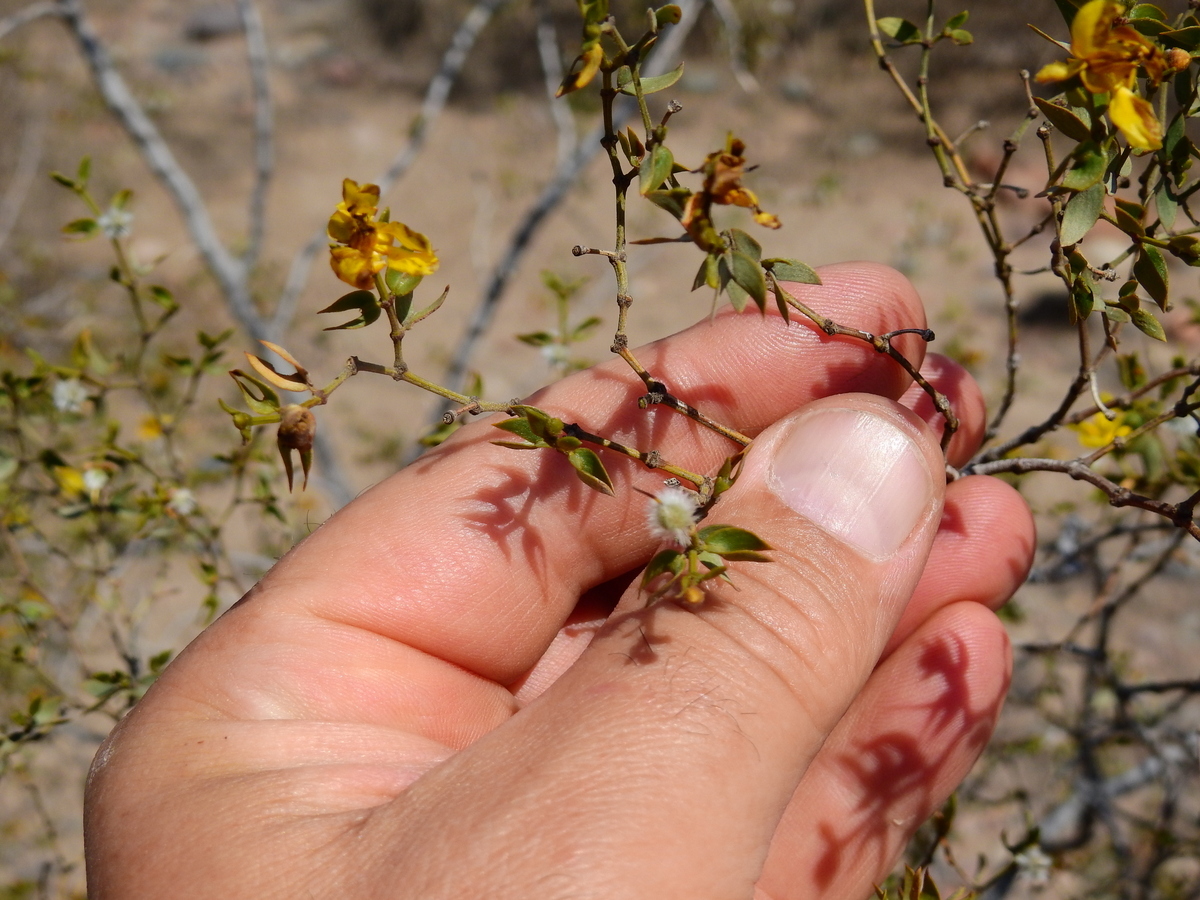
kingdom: Plantae
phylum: Tracheophyta
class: Magnoliopsida
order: Zygophyllales
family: Zygophyllaceae
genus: Larrea
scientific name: Larrea divaricata
